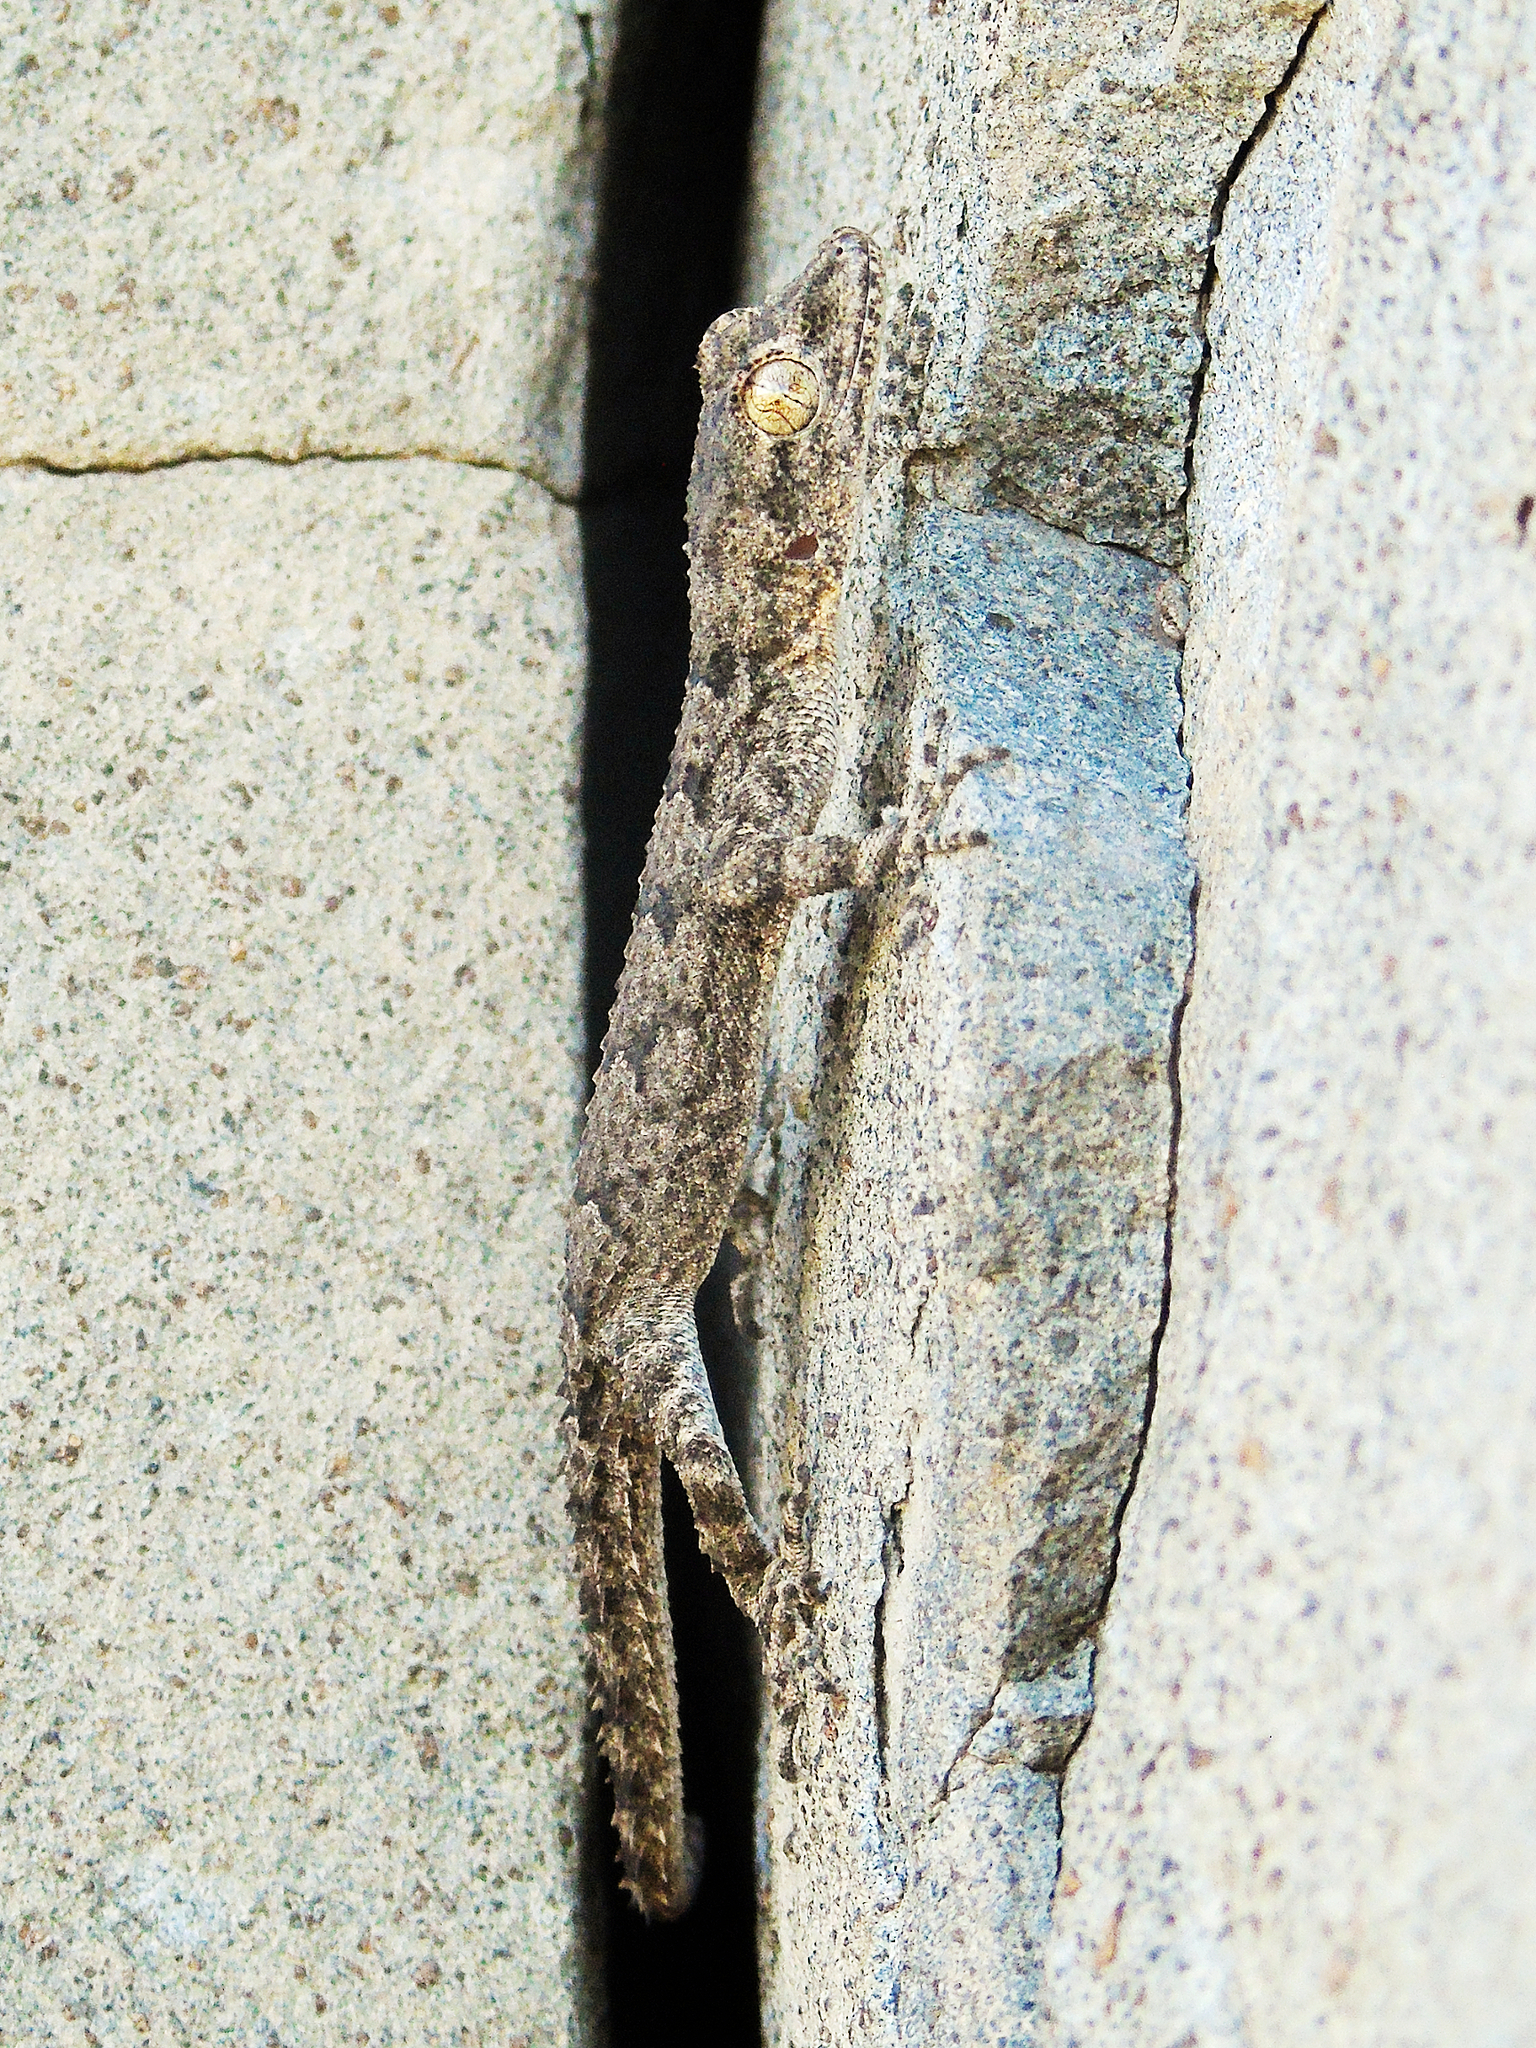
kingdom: Animalia
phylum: Chordata
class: Squamata
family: Gekkonidae
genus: Mediodactylus
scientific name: Mediodactylus heterocercus
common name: Asia minor thin-toed gecko
